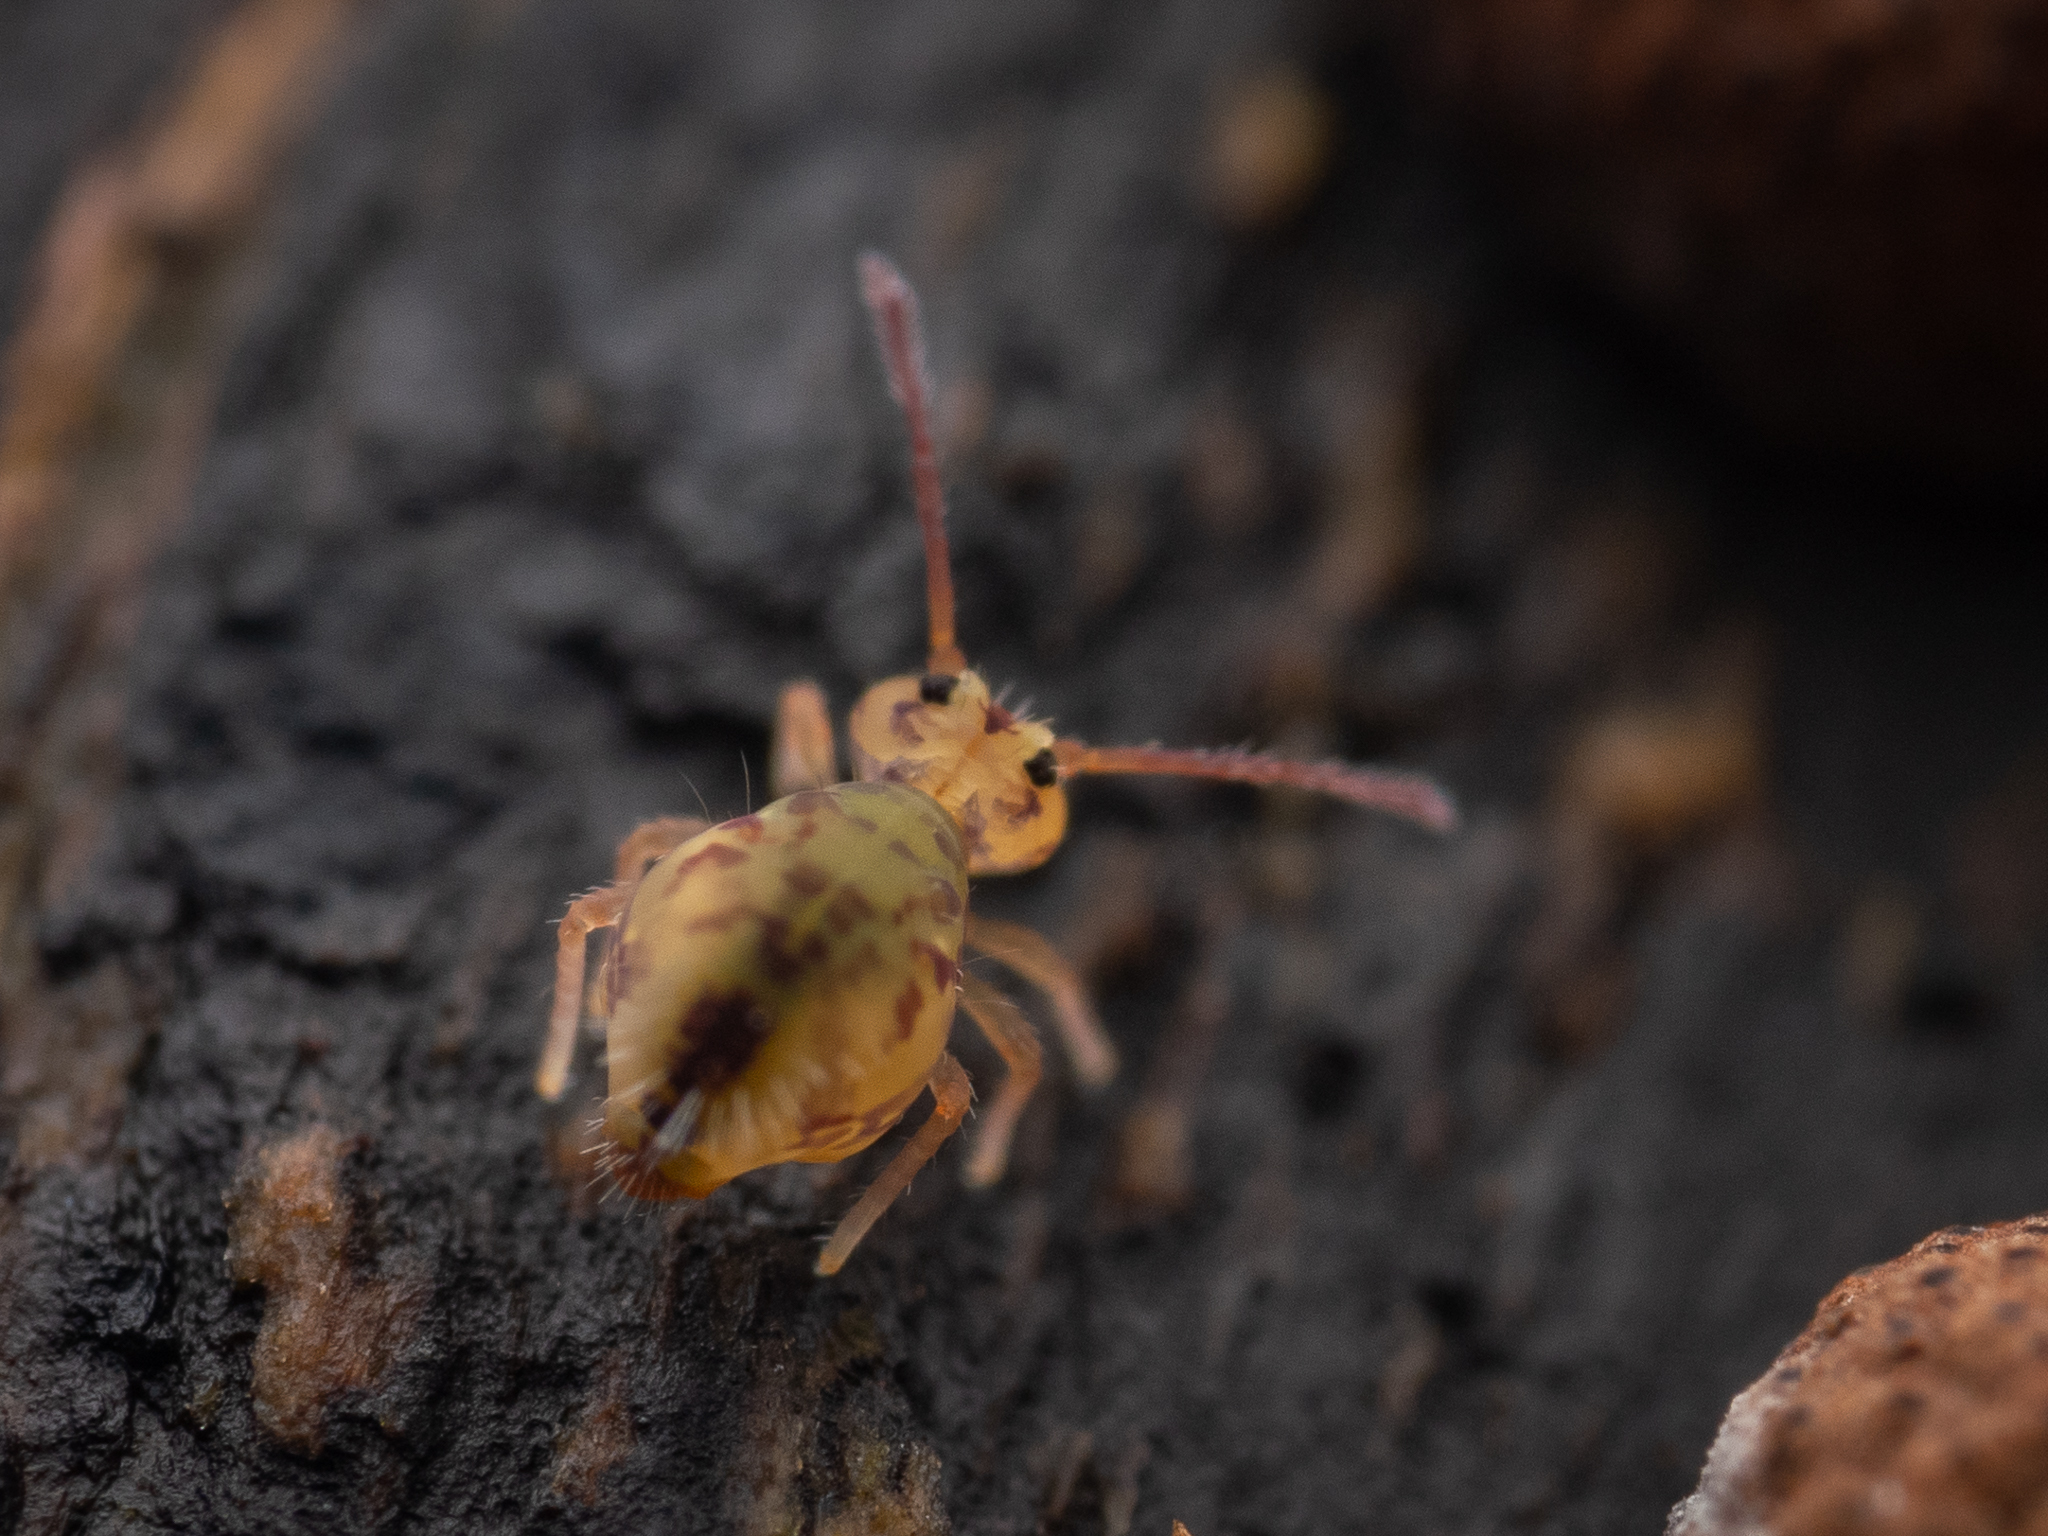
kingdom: Animalia
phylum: Arthropoda
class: Collembola
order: Symphypleona
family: Dicyrtomidae
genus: Dicyrtomina
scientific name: Dicyrtomina ornata
